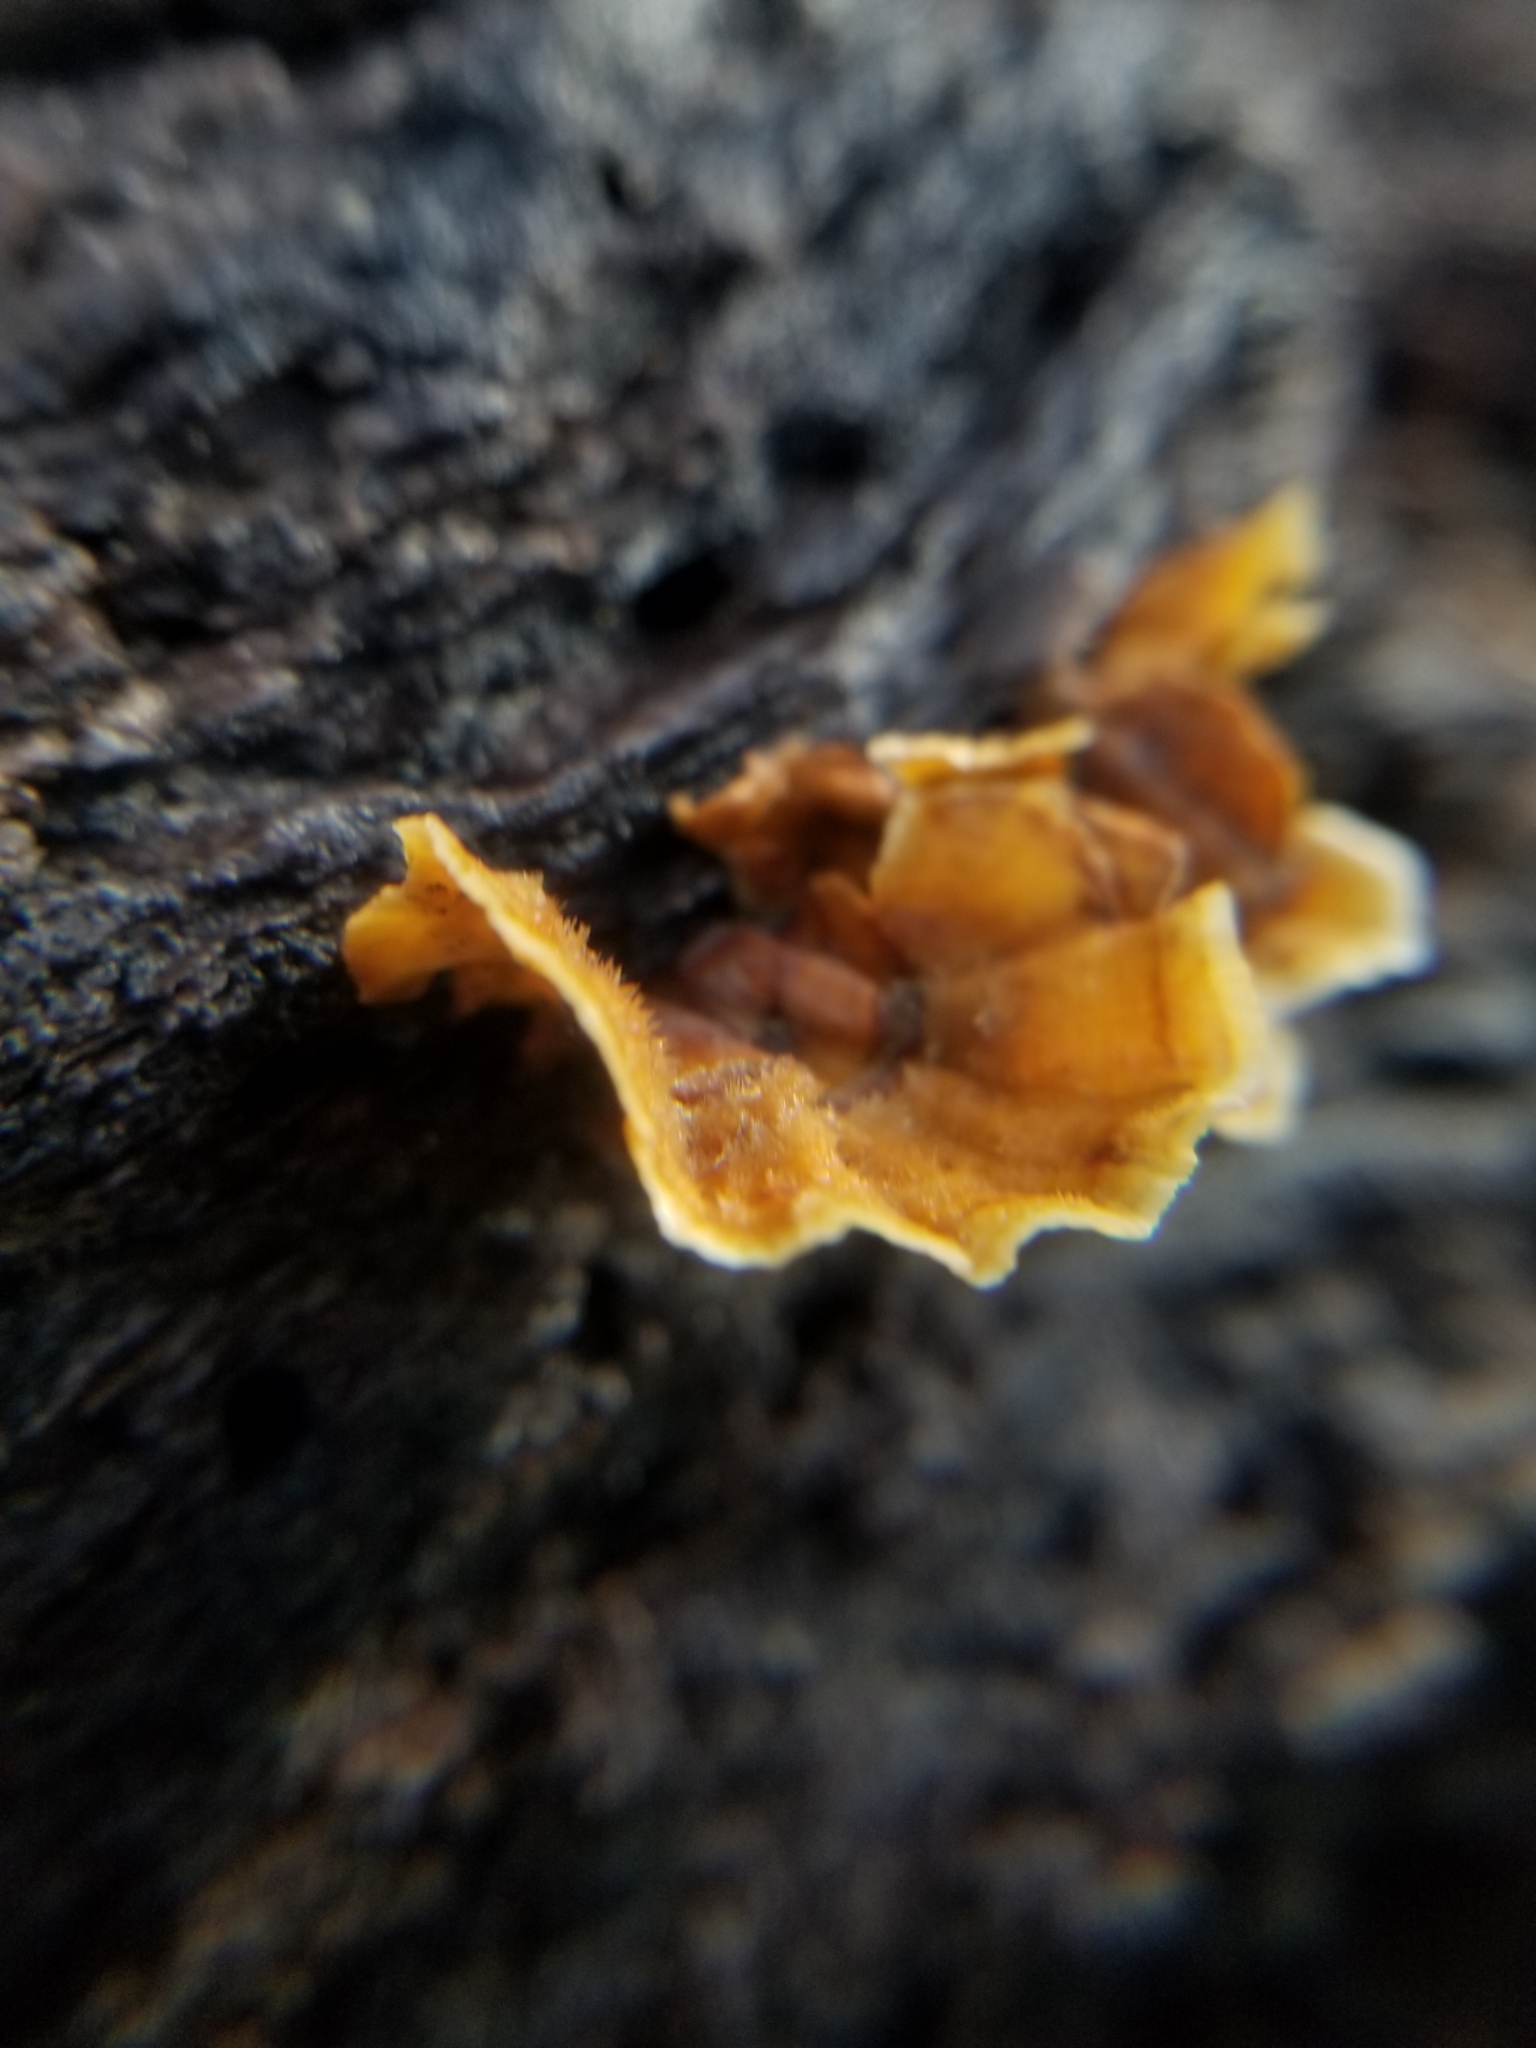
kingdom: Fungi
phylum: Basidiomycota
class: Agaricomycetes
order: Russulales
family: Stereaceae
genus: Stereum
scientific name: Stereum hirsutum
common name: Hairy curtain crust
